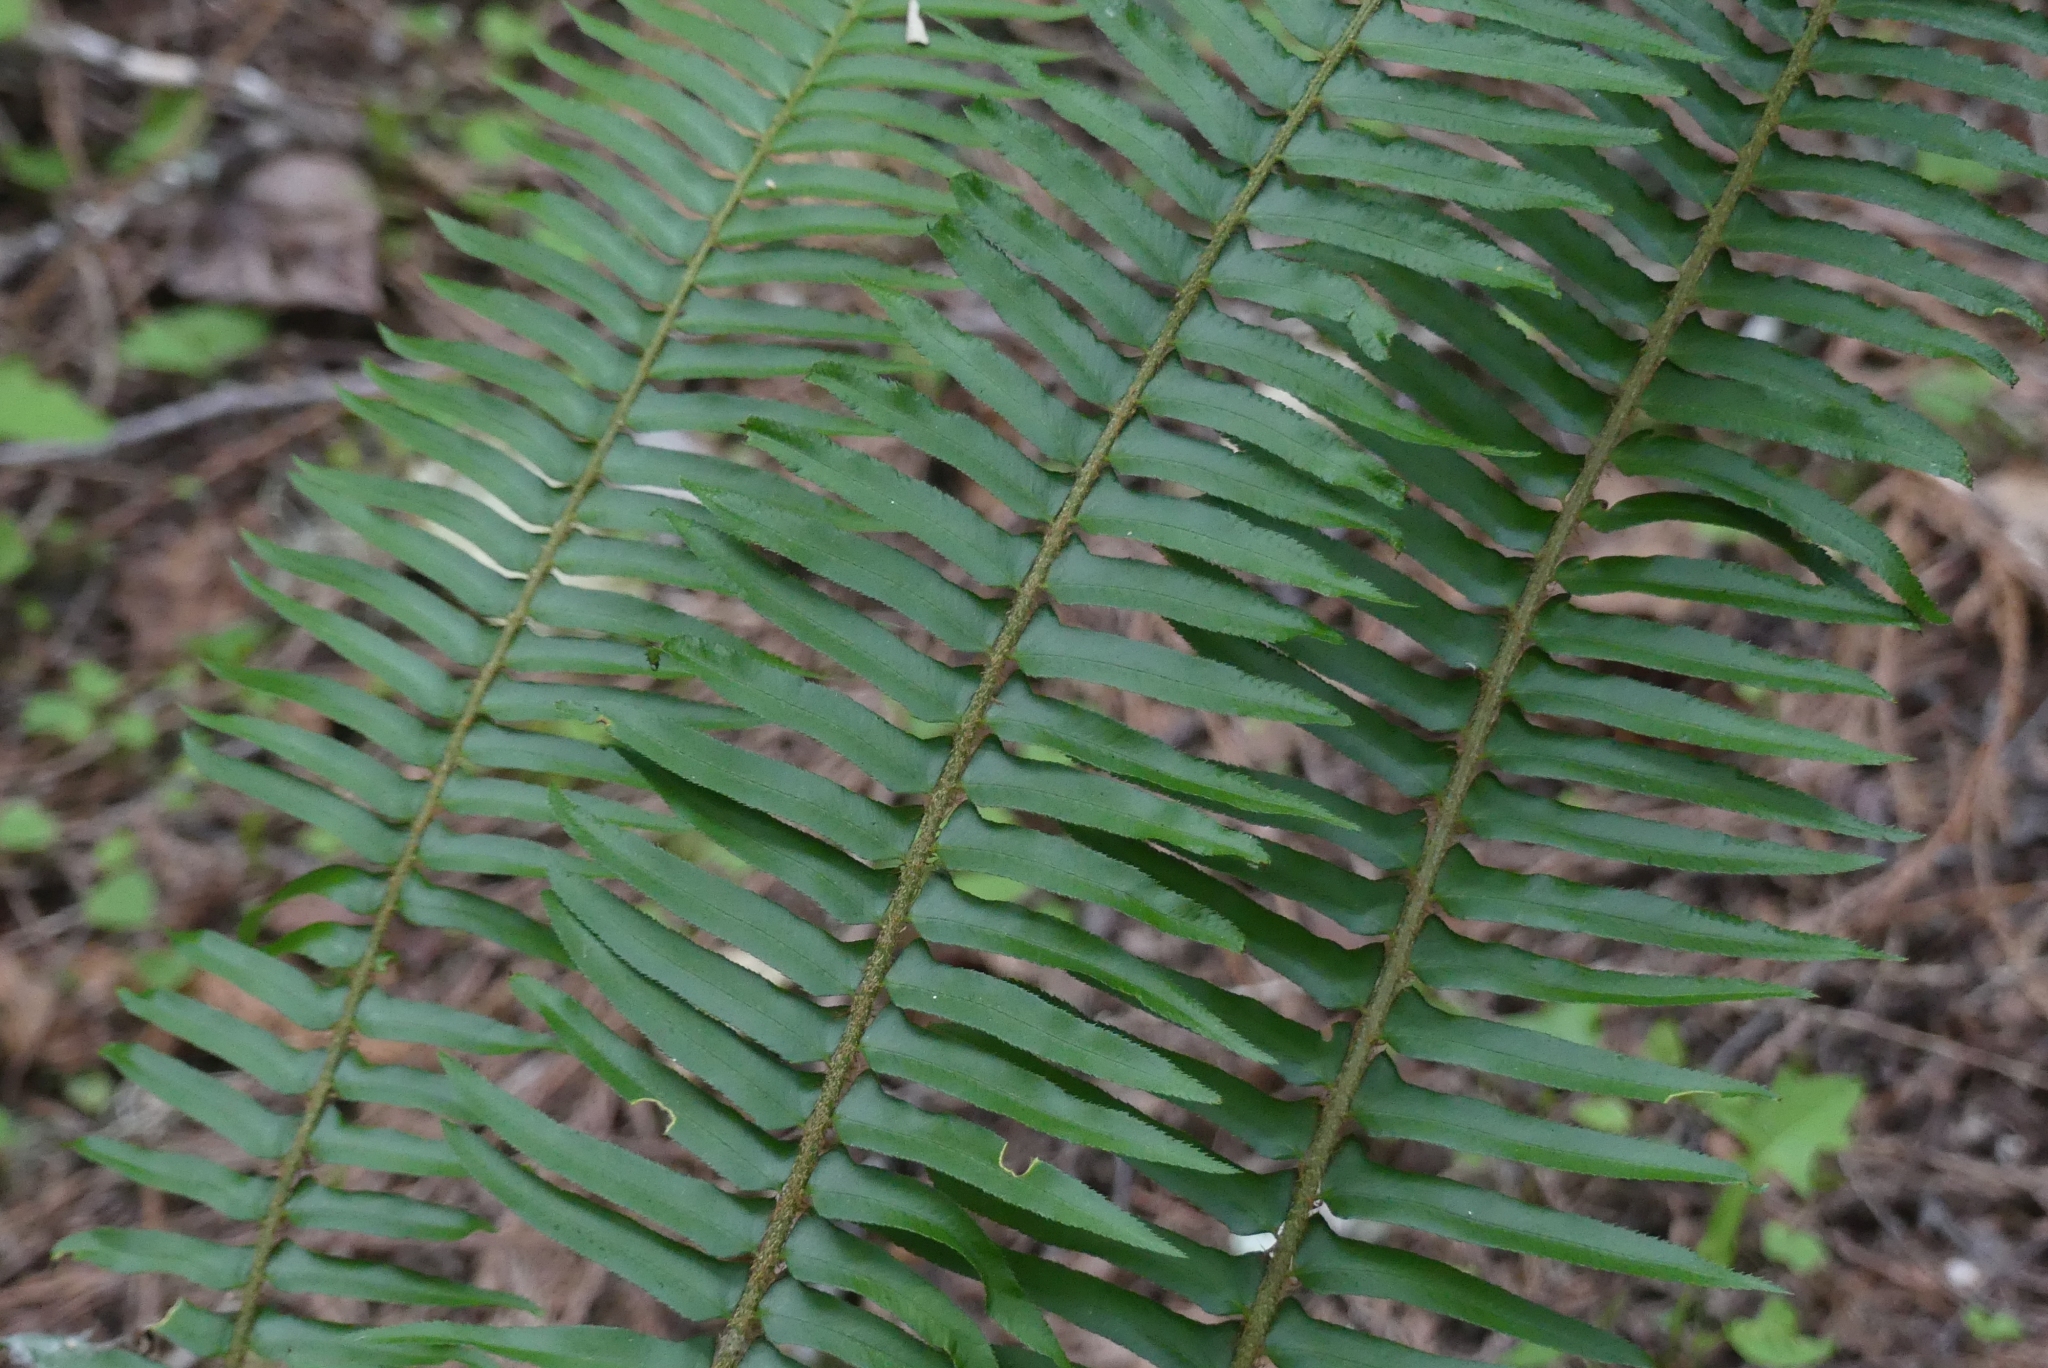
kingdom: Plantae
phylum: Tracheophyta
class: Polypodiopsida
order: Polypodiales
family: Dryopteridaceae
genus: Polystichum
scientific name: Polystichum munitum
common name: Western sword-fern
